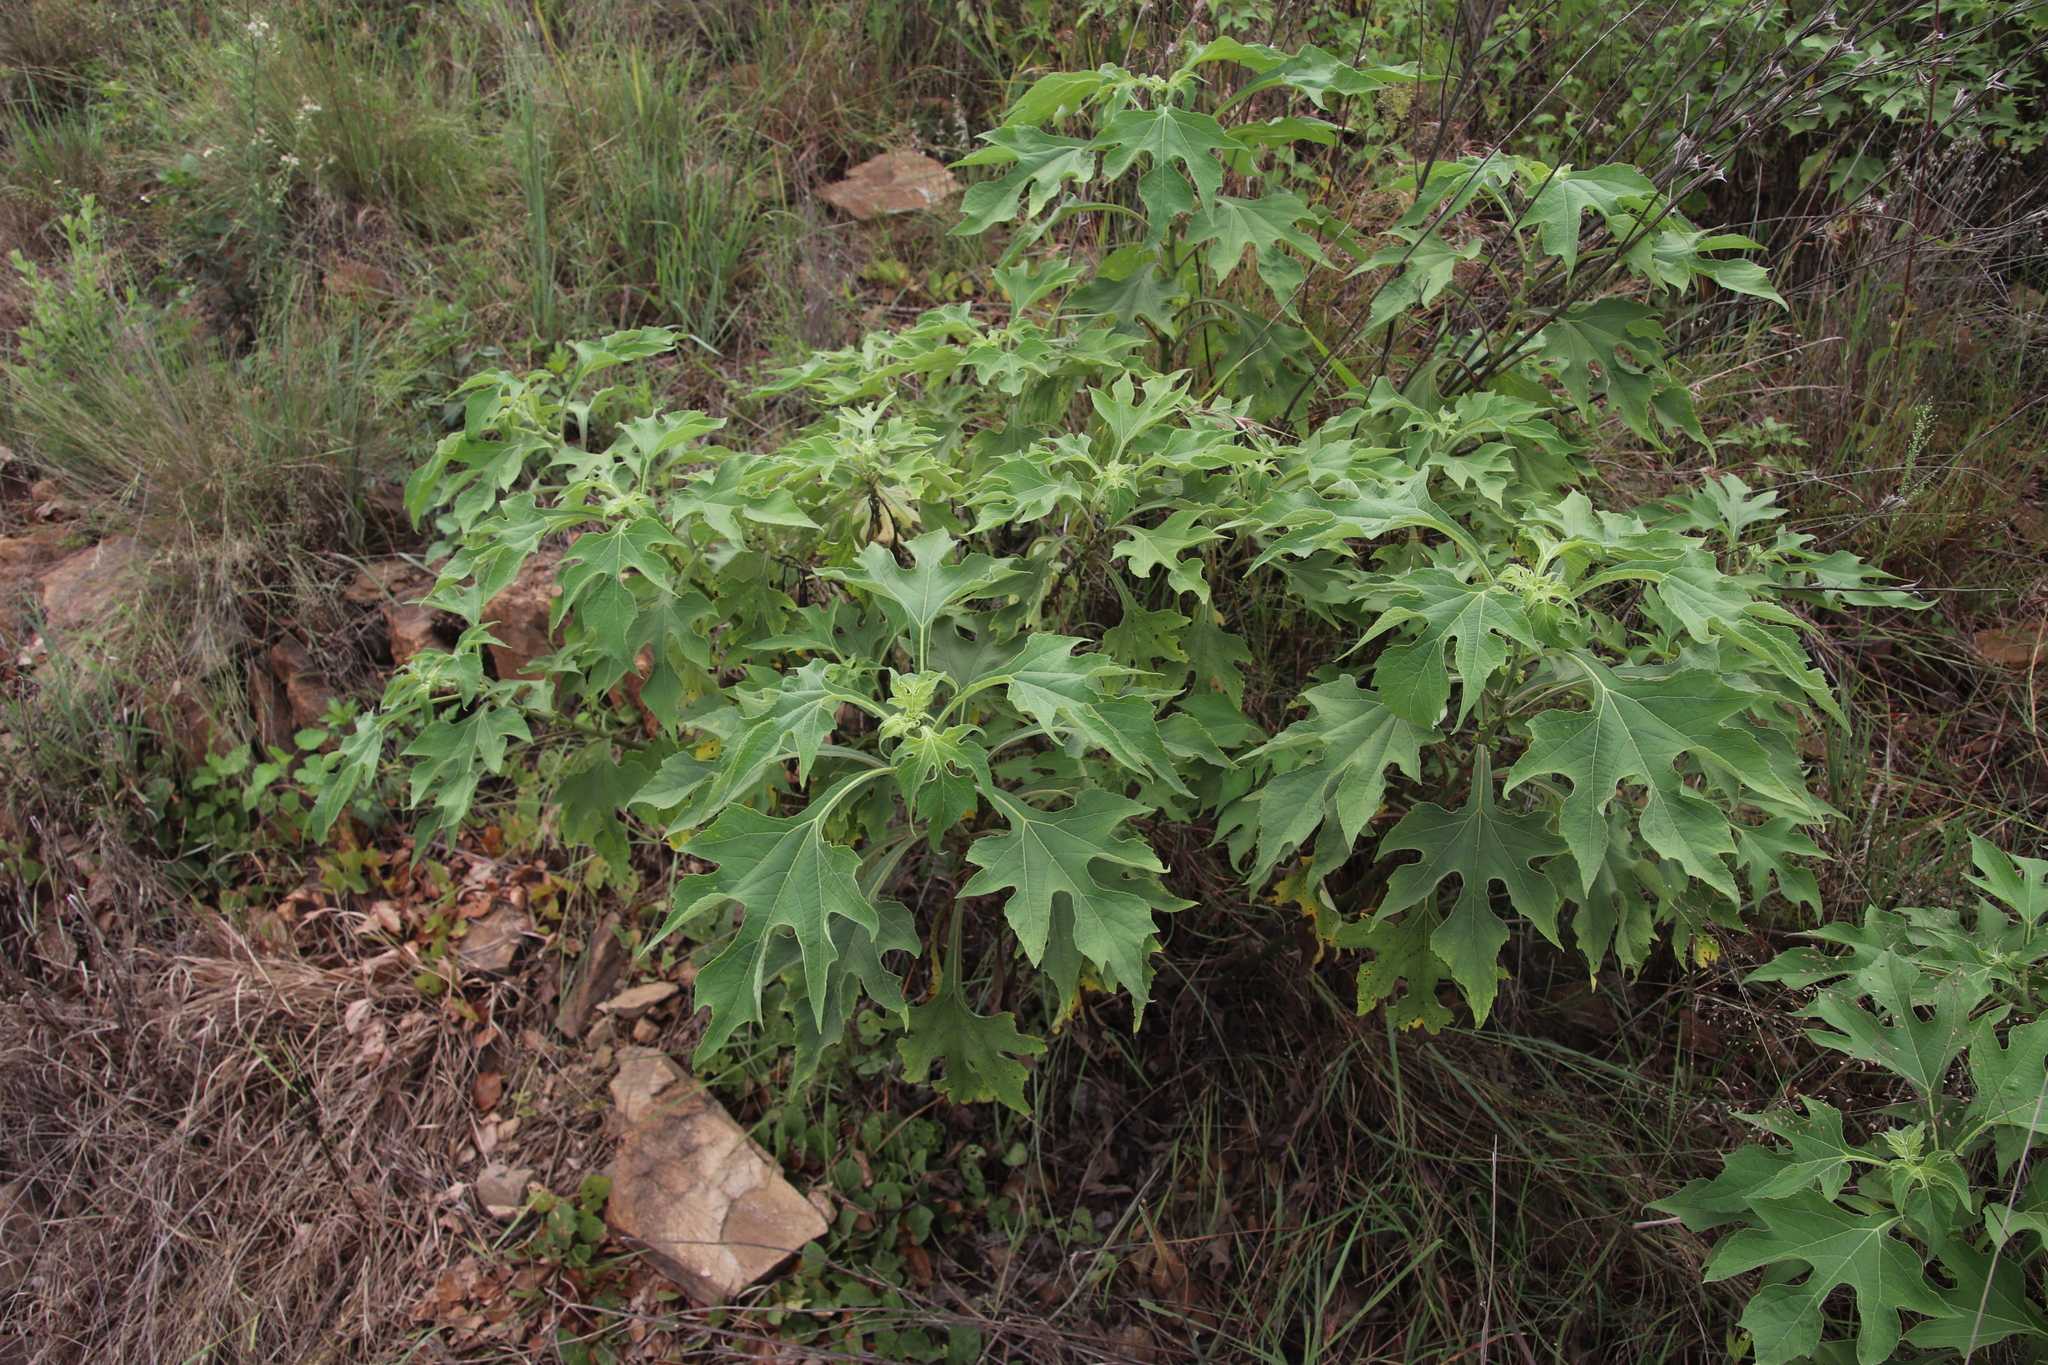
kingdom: Plantae
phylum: Tracheophyta
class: Magnoliopsida
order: Asterales
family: Asteraceae
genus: Tithonia
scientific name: Tithonia diversifolia
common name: Tree marigold
